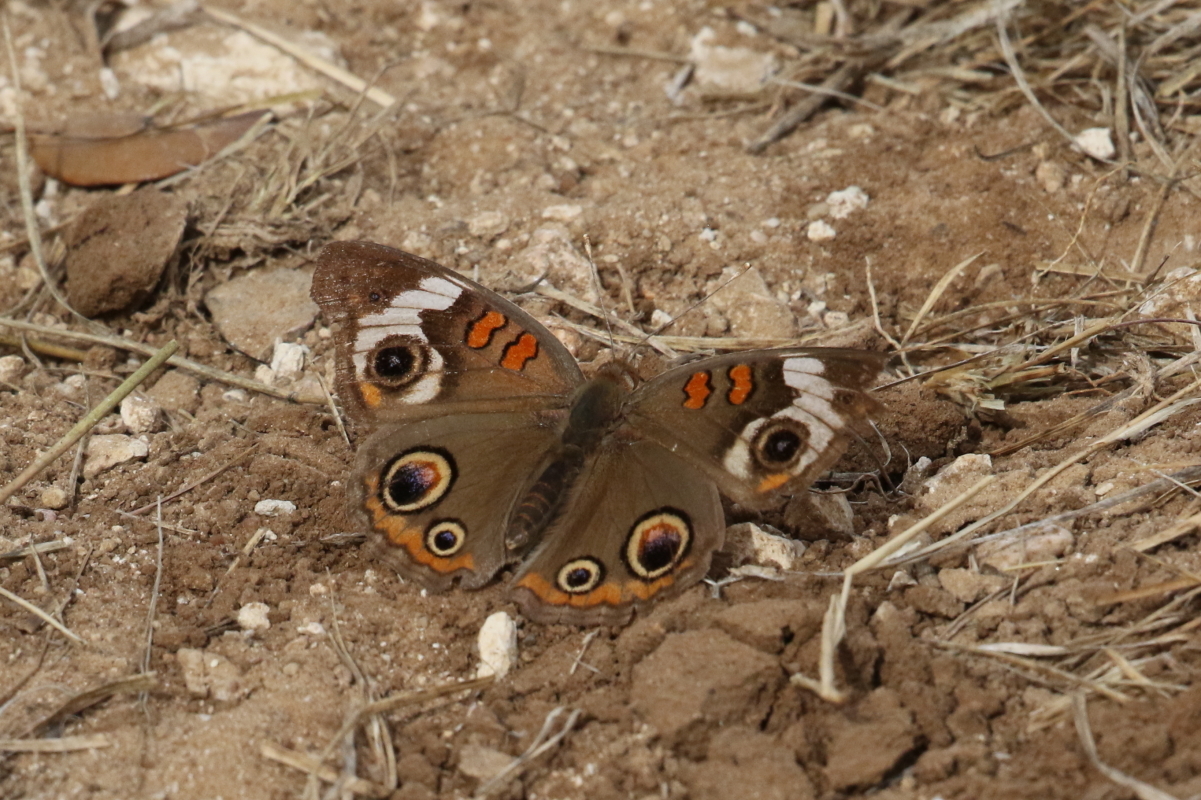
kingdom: Animalia
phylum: Arthropoda
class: Insecta
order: Lepidoptera
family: Nymphalidae
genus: Junonia
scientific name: Junonia coenia
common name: Common buckeye
